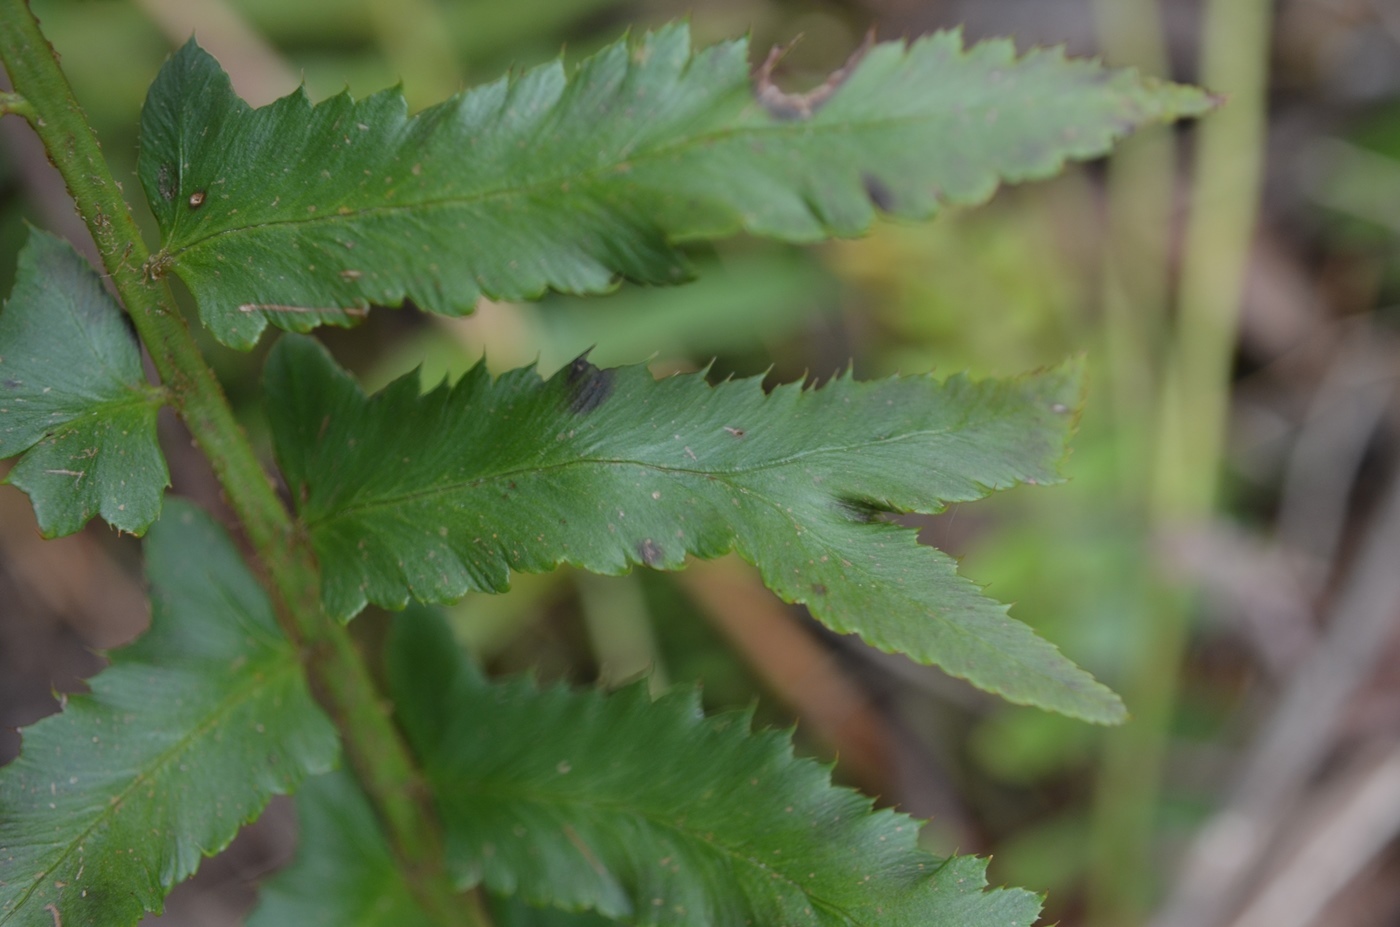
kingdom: Plantae
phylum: Tracheophyta
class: Polypodiopsida
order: Polypodiales
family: Dryopteridaceae
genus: Polystichum
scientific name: Polystichum acrostichoides
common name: Christmas fern
